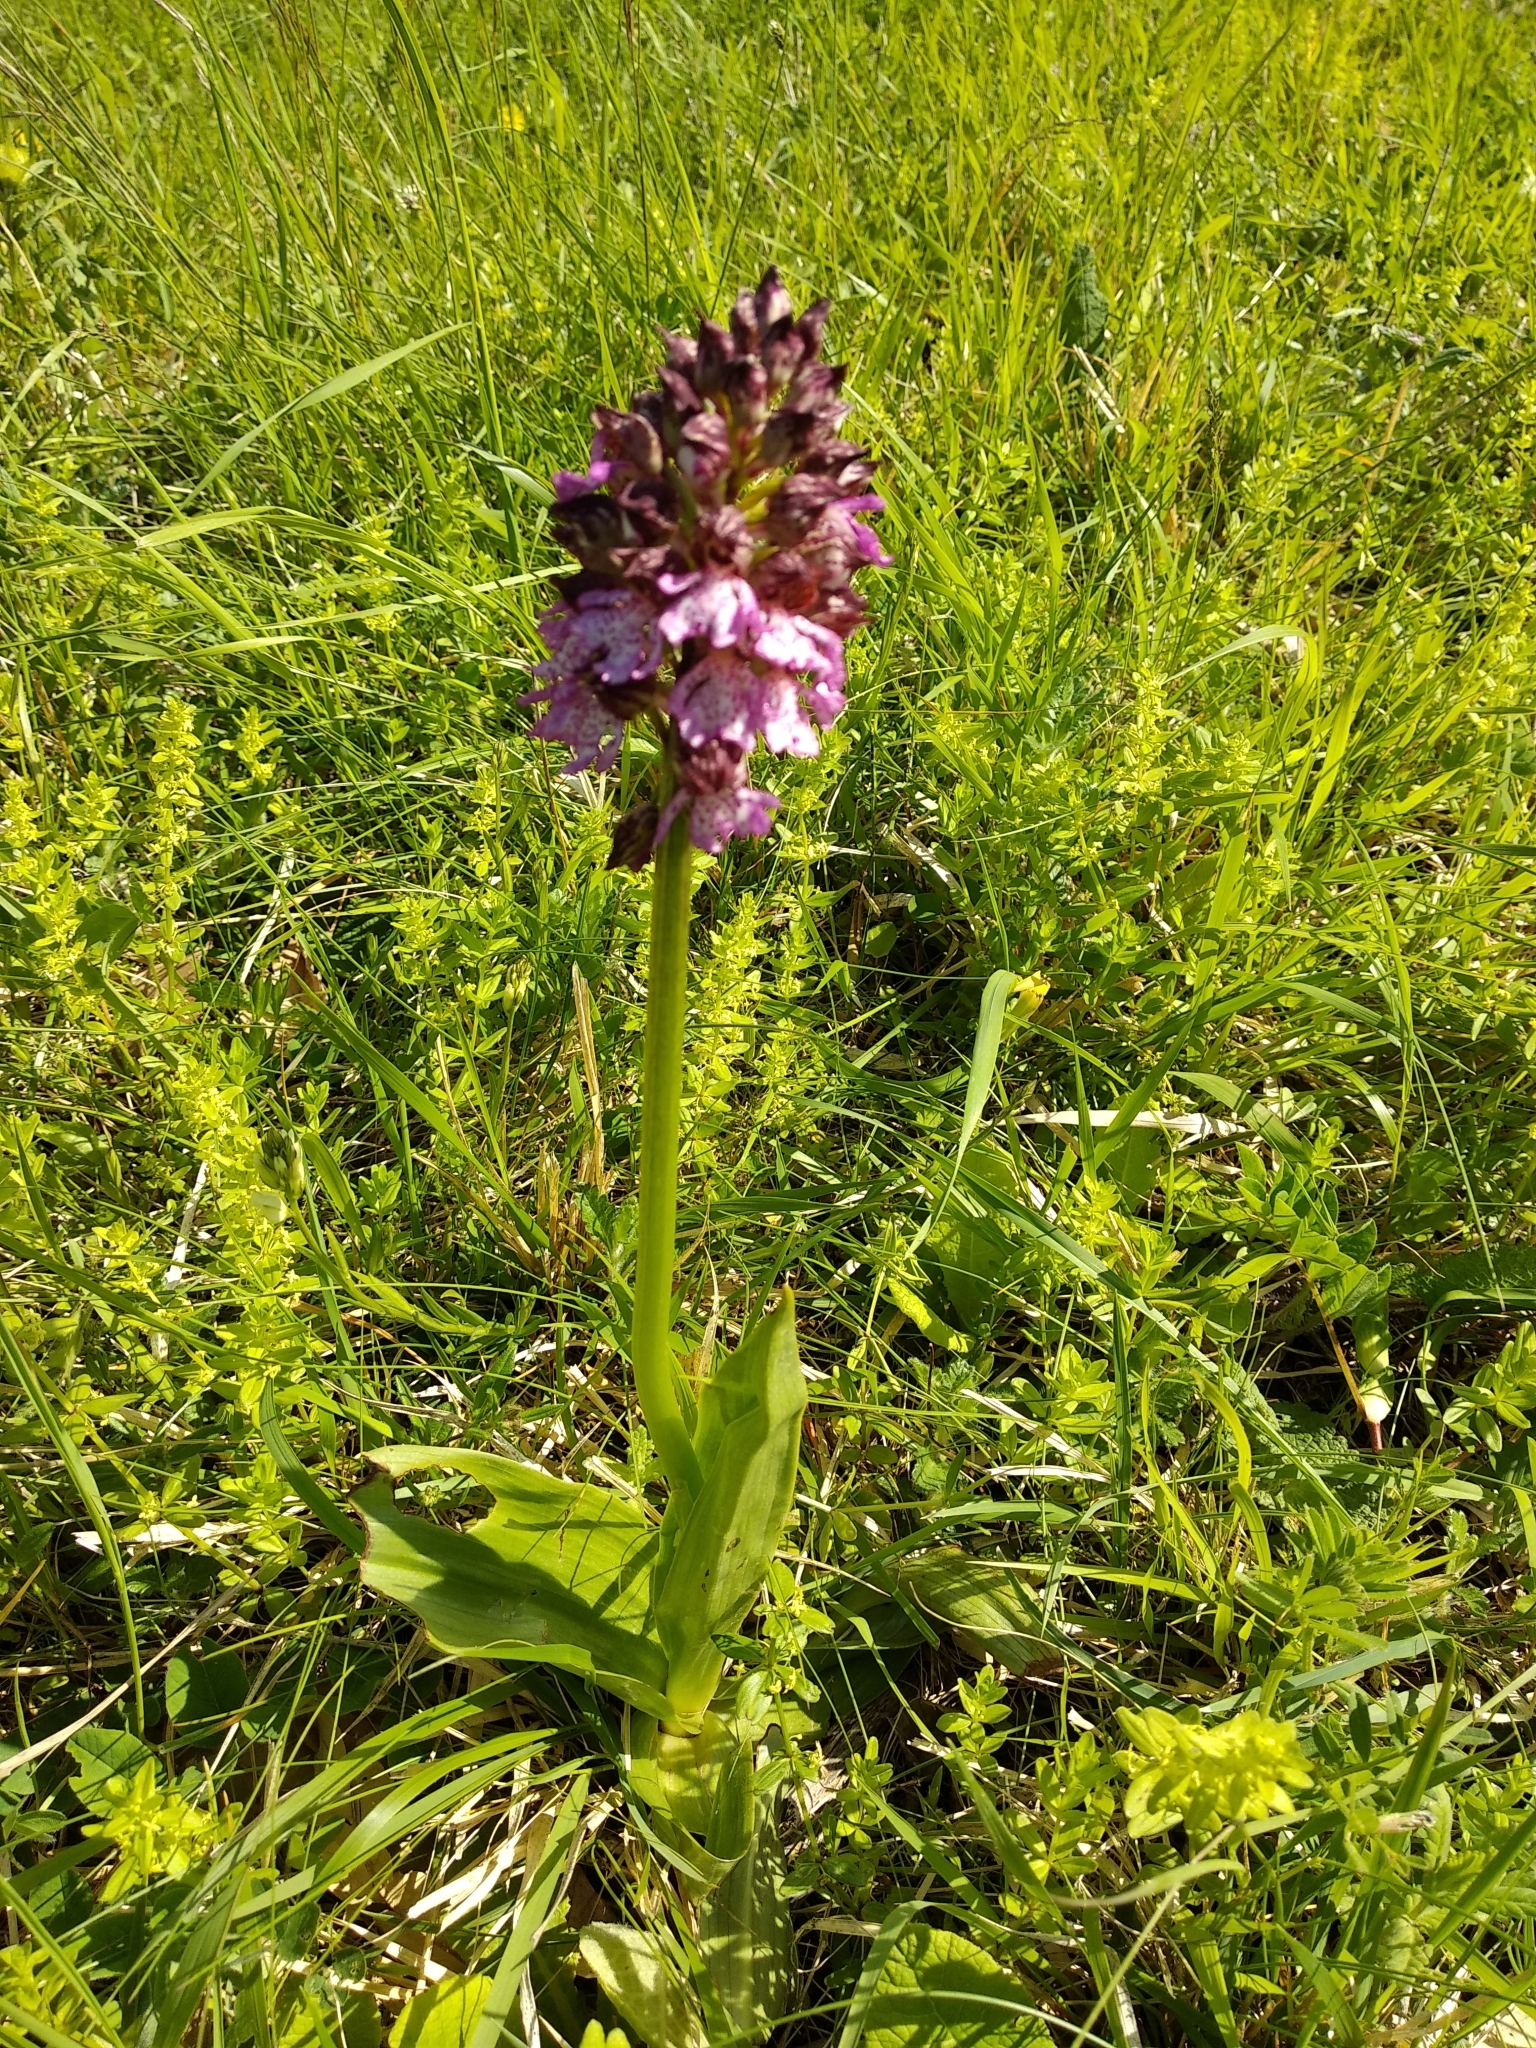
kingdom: Plantae
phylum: Tracheophyta
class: Liliopsida
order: Asparagales
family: Orchidaceae
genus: Orchis
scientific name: Orchis purpurea
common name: Lady orchid
